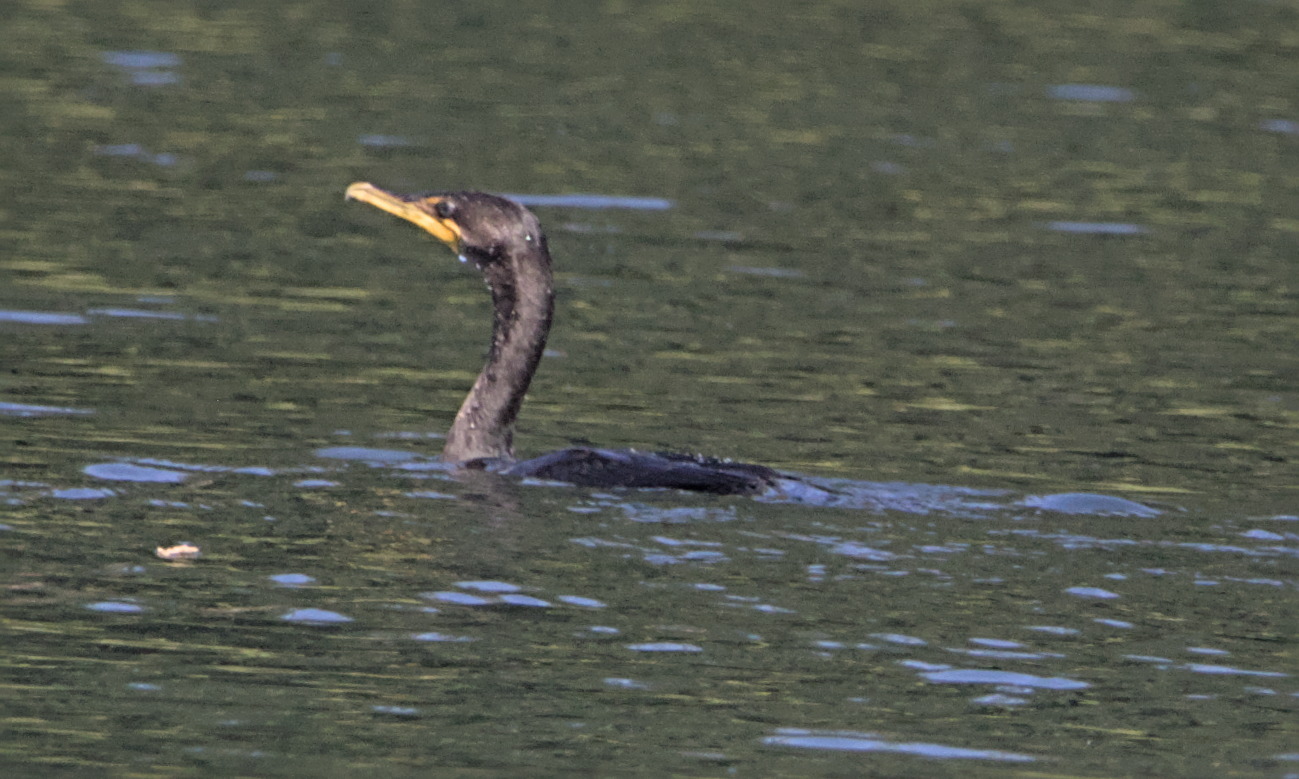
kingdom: Animalia
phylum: Chordata
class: Aves
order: Suliformes
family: Phalacrocoracidae
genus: Phalacrocorax
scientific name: Phalacrocorax auritus
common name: Double-crested cormorant
